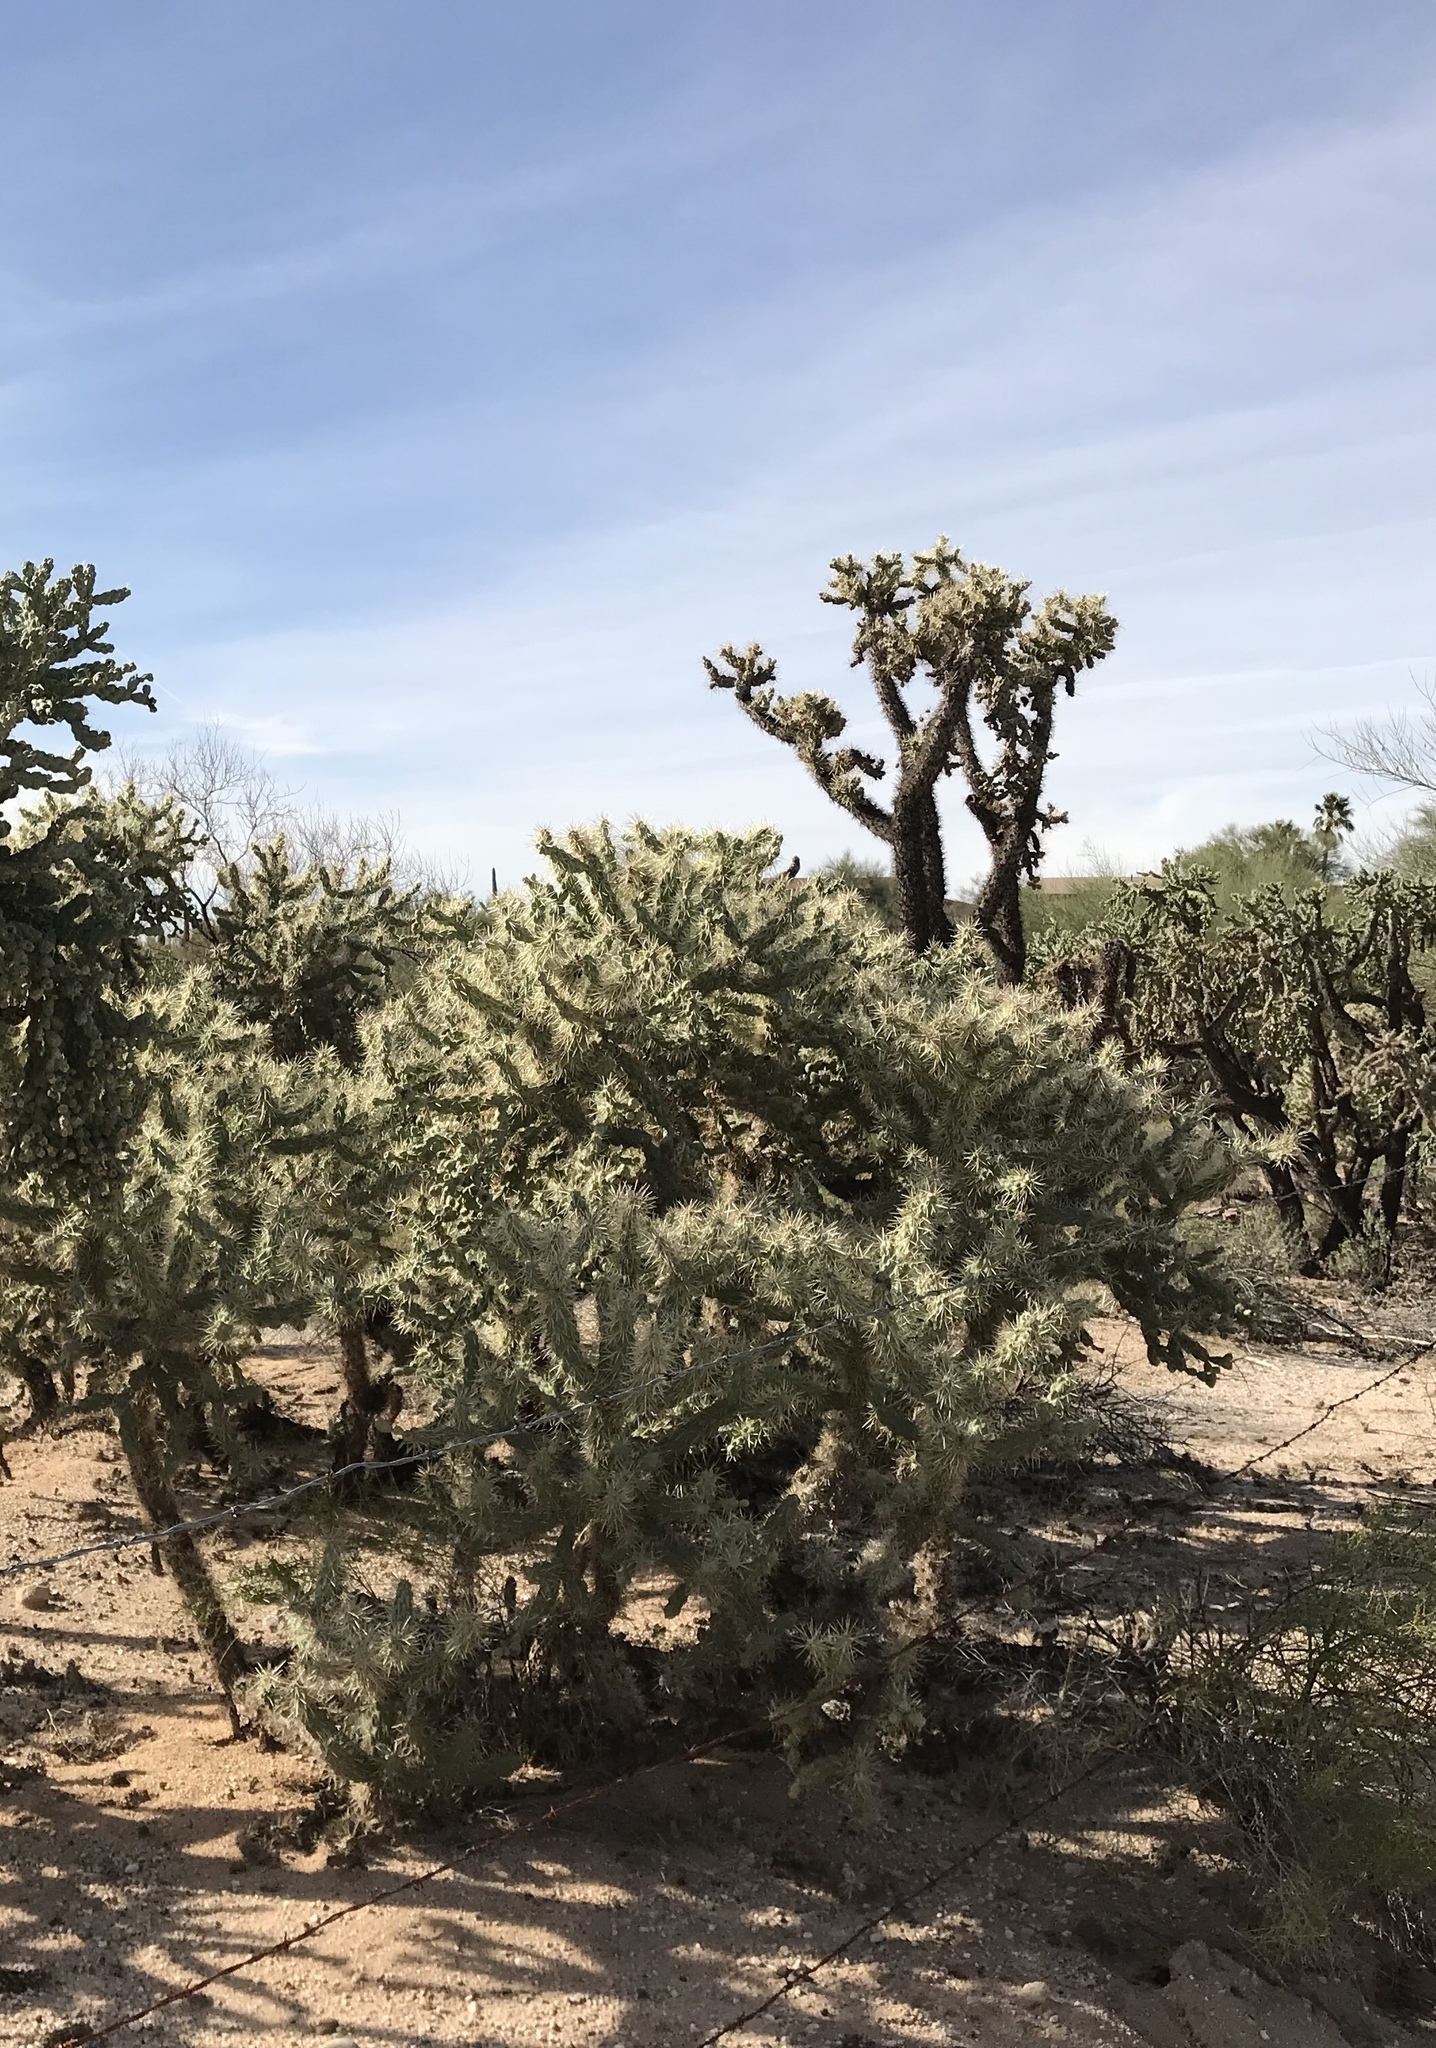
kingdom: Plantae
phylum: Tracheophyta
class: Magnoliopsida
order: Caryophyllales
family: Cactaceae
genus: Cylindropuntia
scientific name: Cylindropuntia fulgida
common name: Jumping cholla
